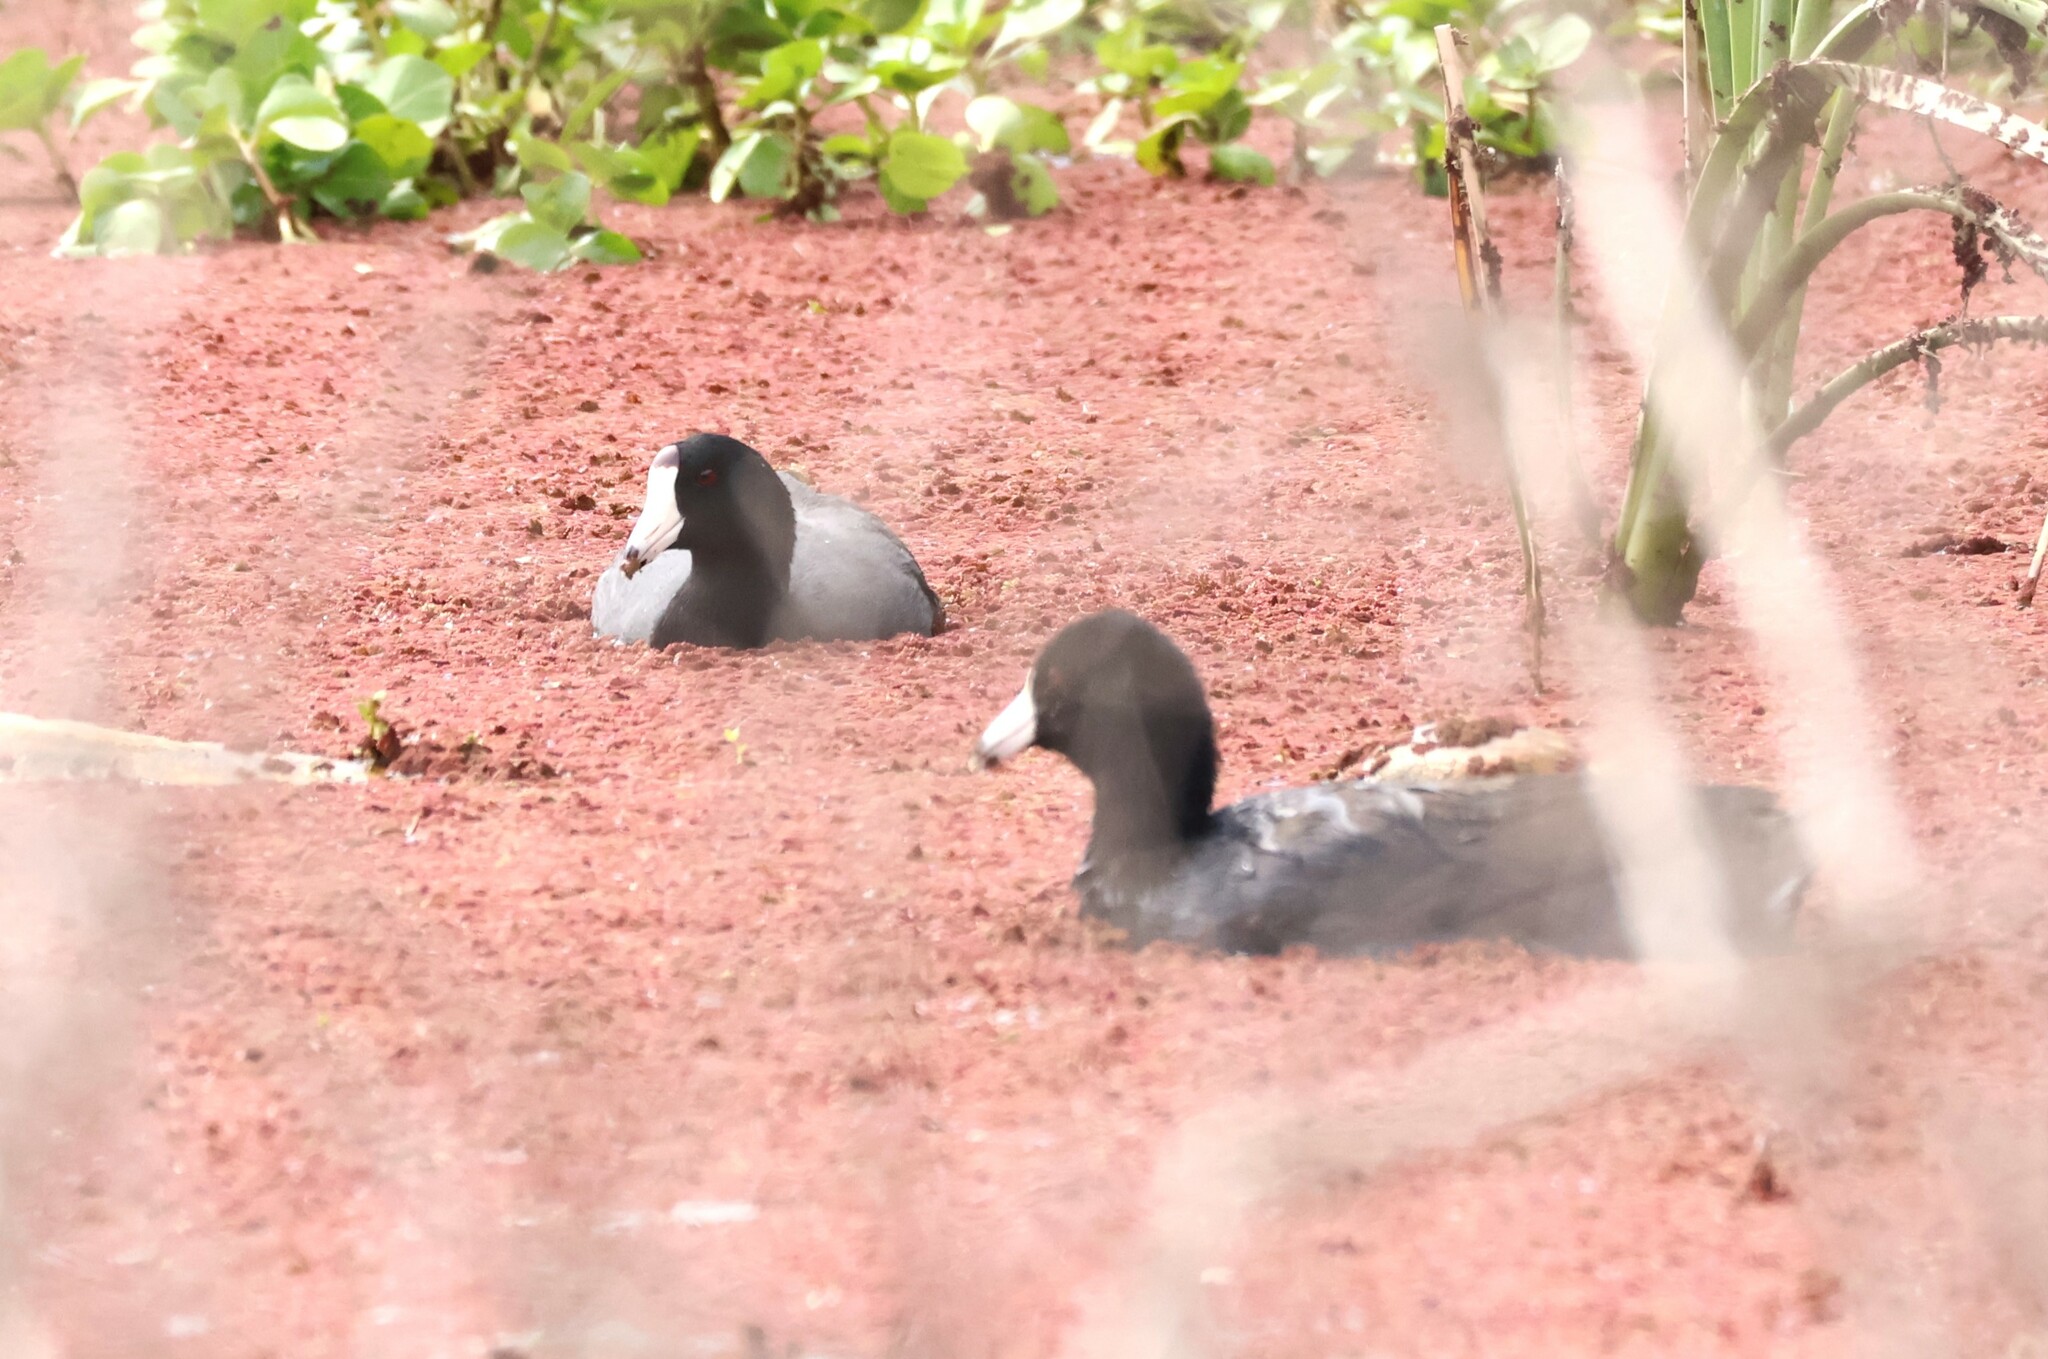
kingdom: Animalia
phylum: Chordata
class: Aves
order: Gruiformes
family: Rallidae
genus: Fulica
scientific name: Fulica americana
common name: American coot
